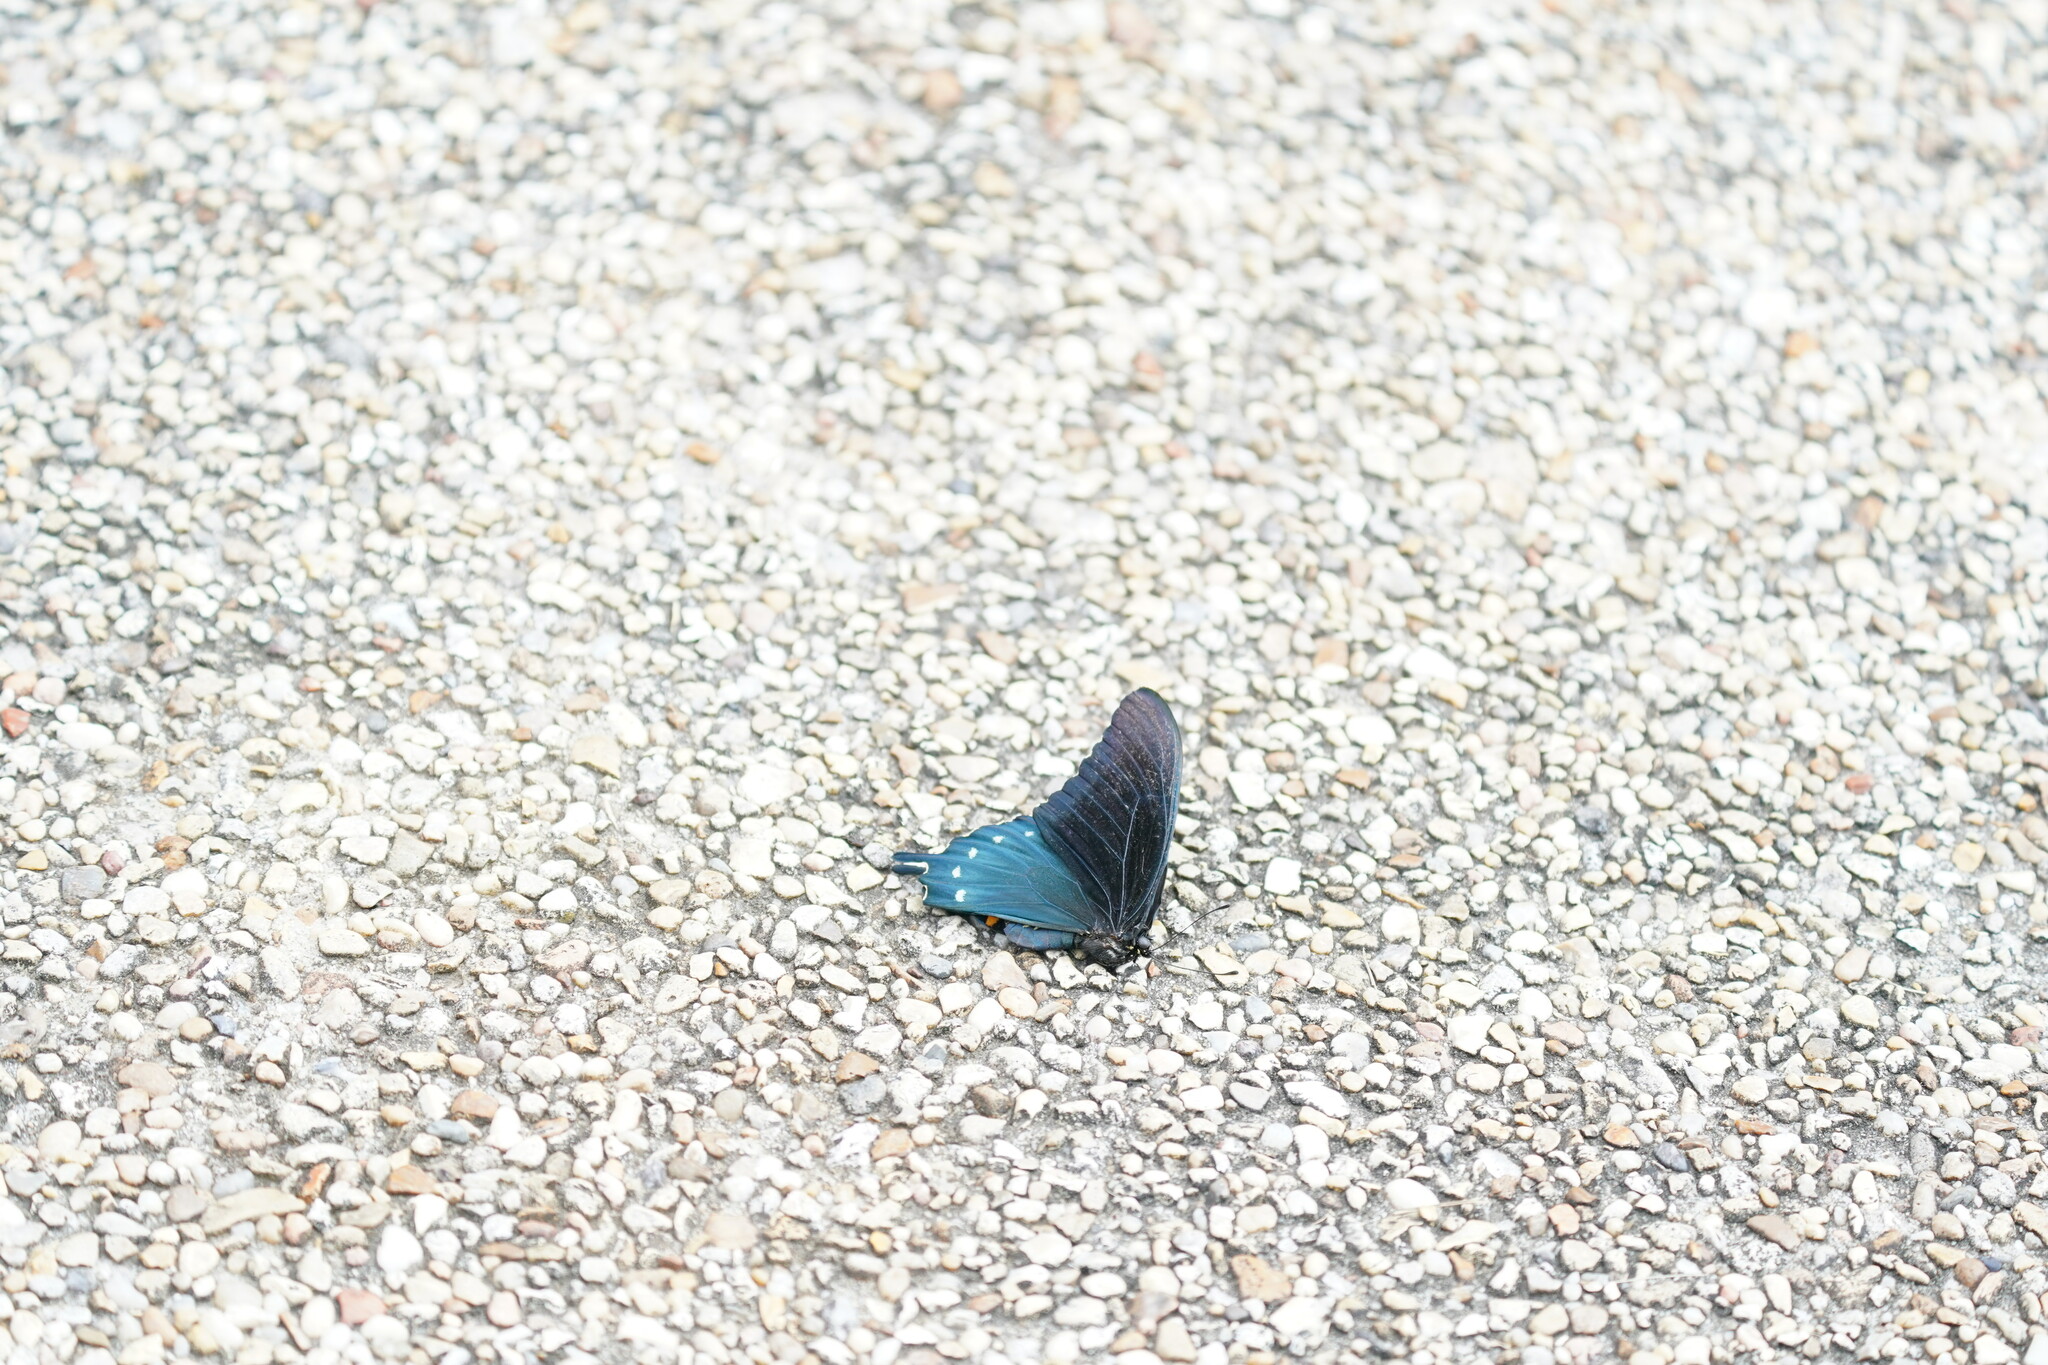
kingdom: Animalia
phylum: Arthropoda
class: Insecta
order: Lepidoptera
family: Papilionidae
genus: Battus
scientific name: Battus philenor
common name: Pipevine swallowtail
